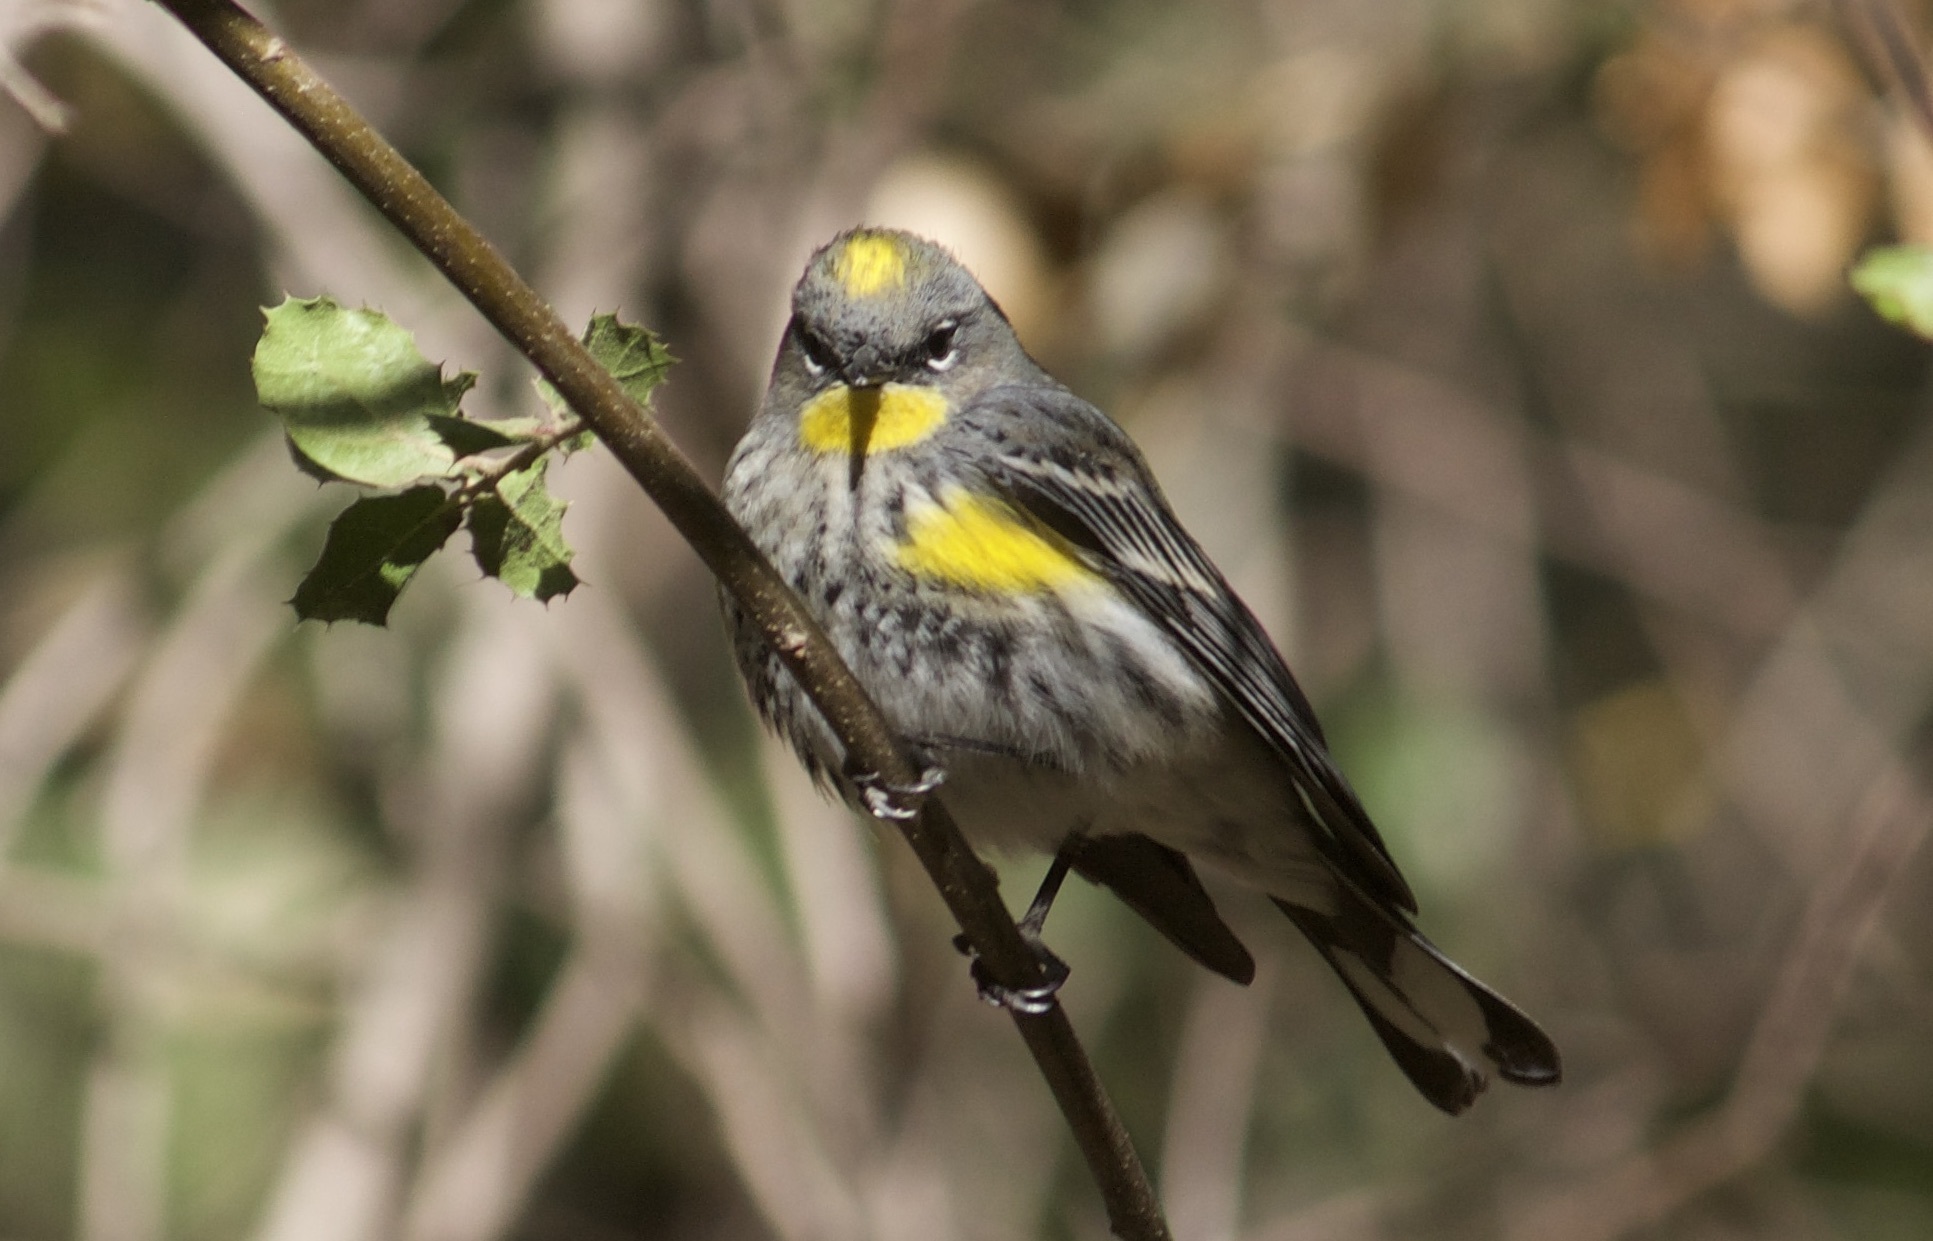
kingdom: Animalia
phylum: Chordata
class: Aves
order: Passeriformes
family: Parulidae
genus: Setophaga
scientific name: Setophaga coronata
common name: Myrtle warbler
